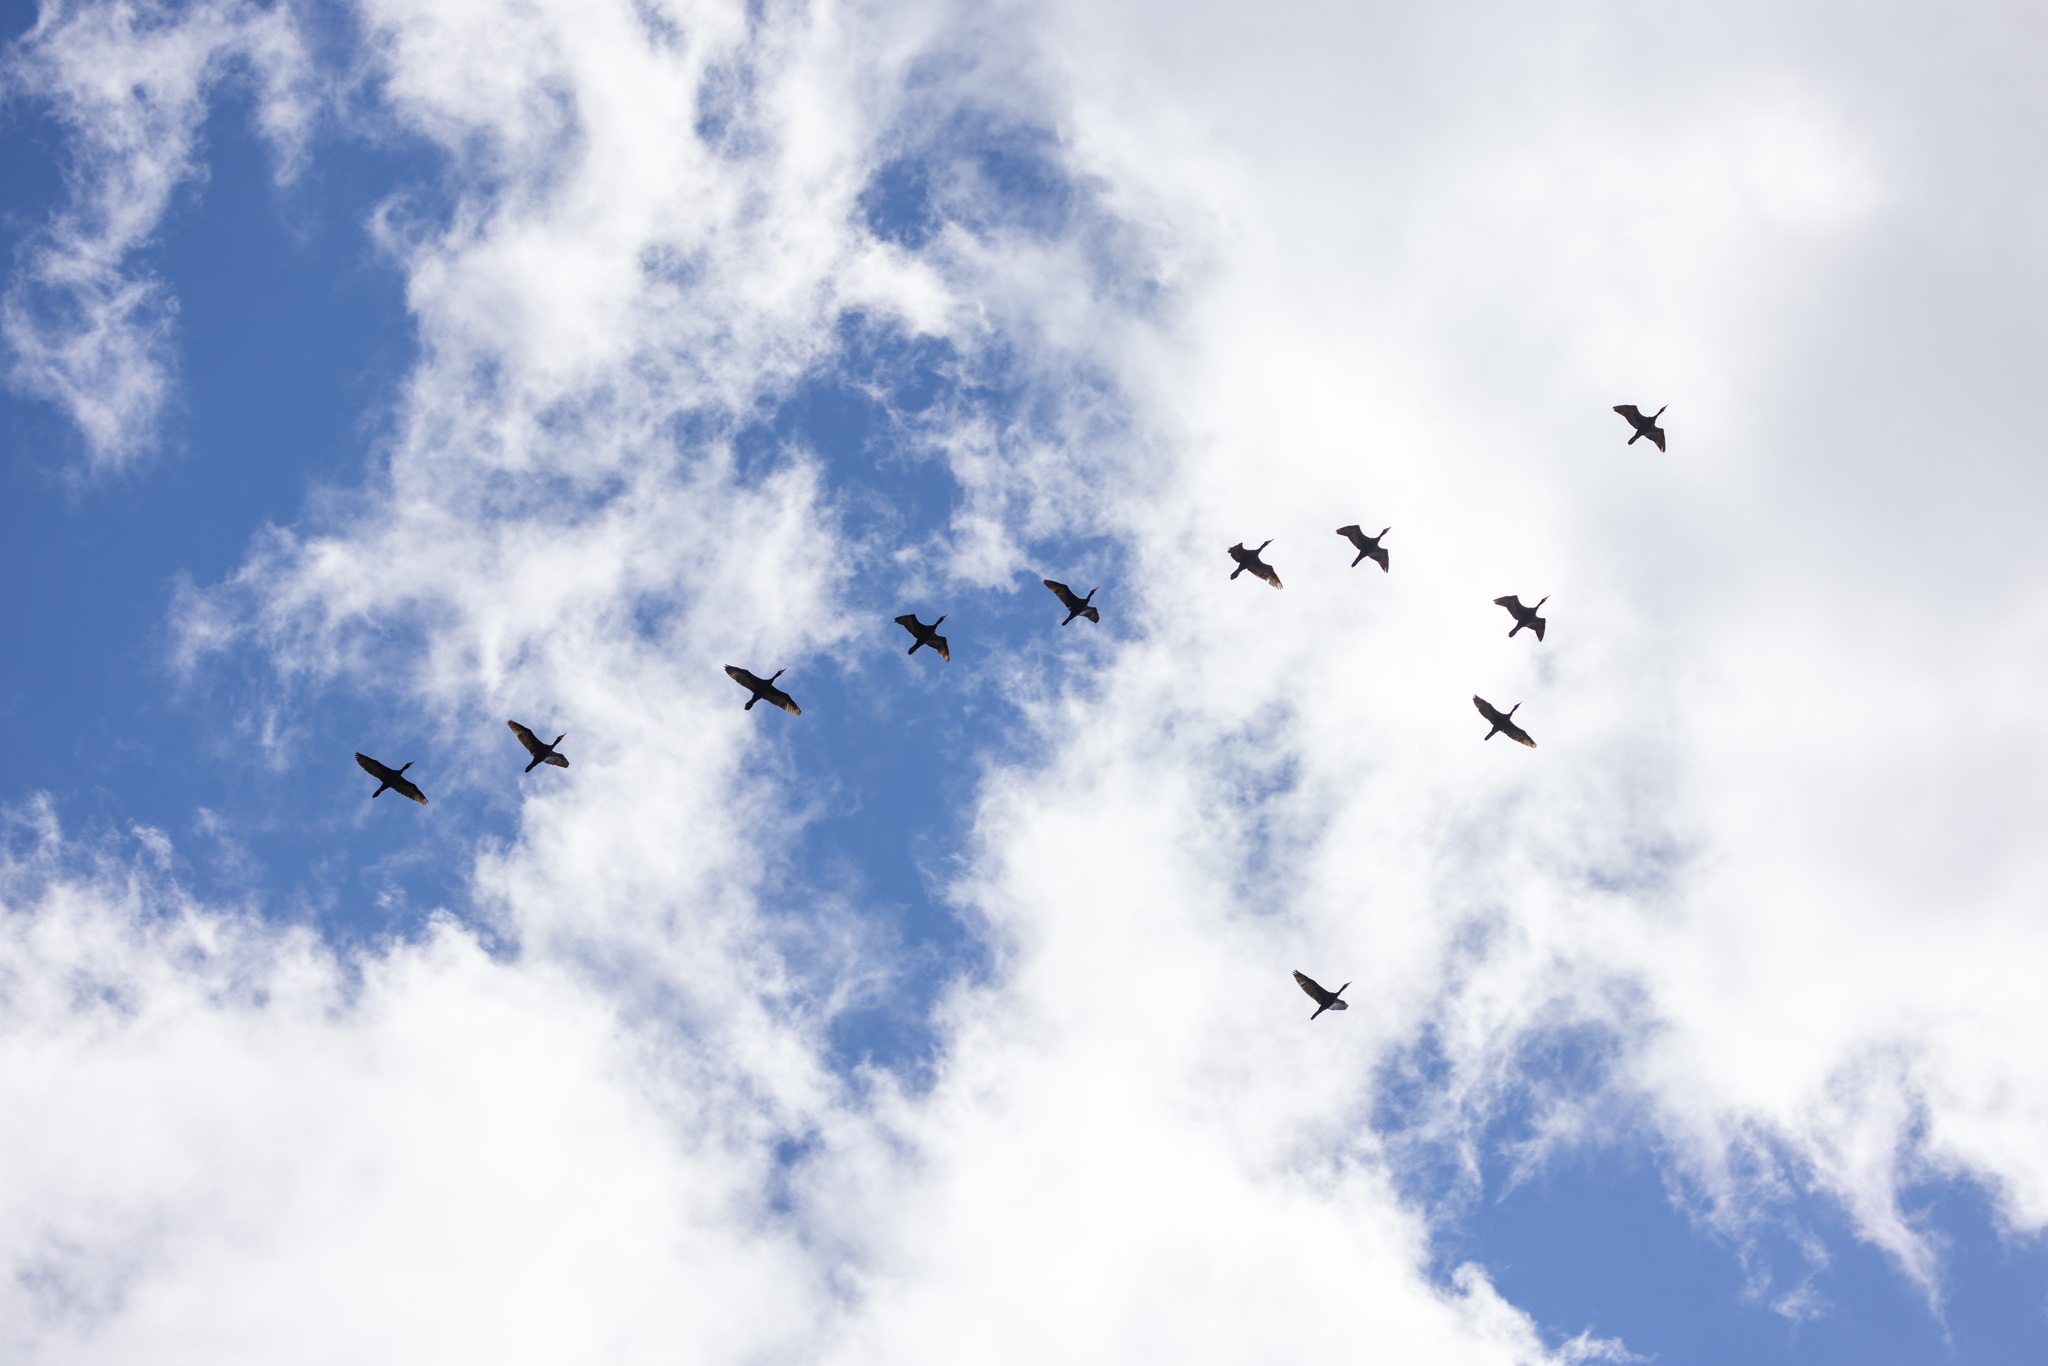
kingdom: Animalia
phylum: Chordata
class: Aves
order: Suliformes
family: Phalacrocoracidae
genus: Phalacrocorax
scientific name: Phalacrocorax auritus
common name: Double-crested cormorant
